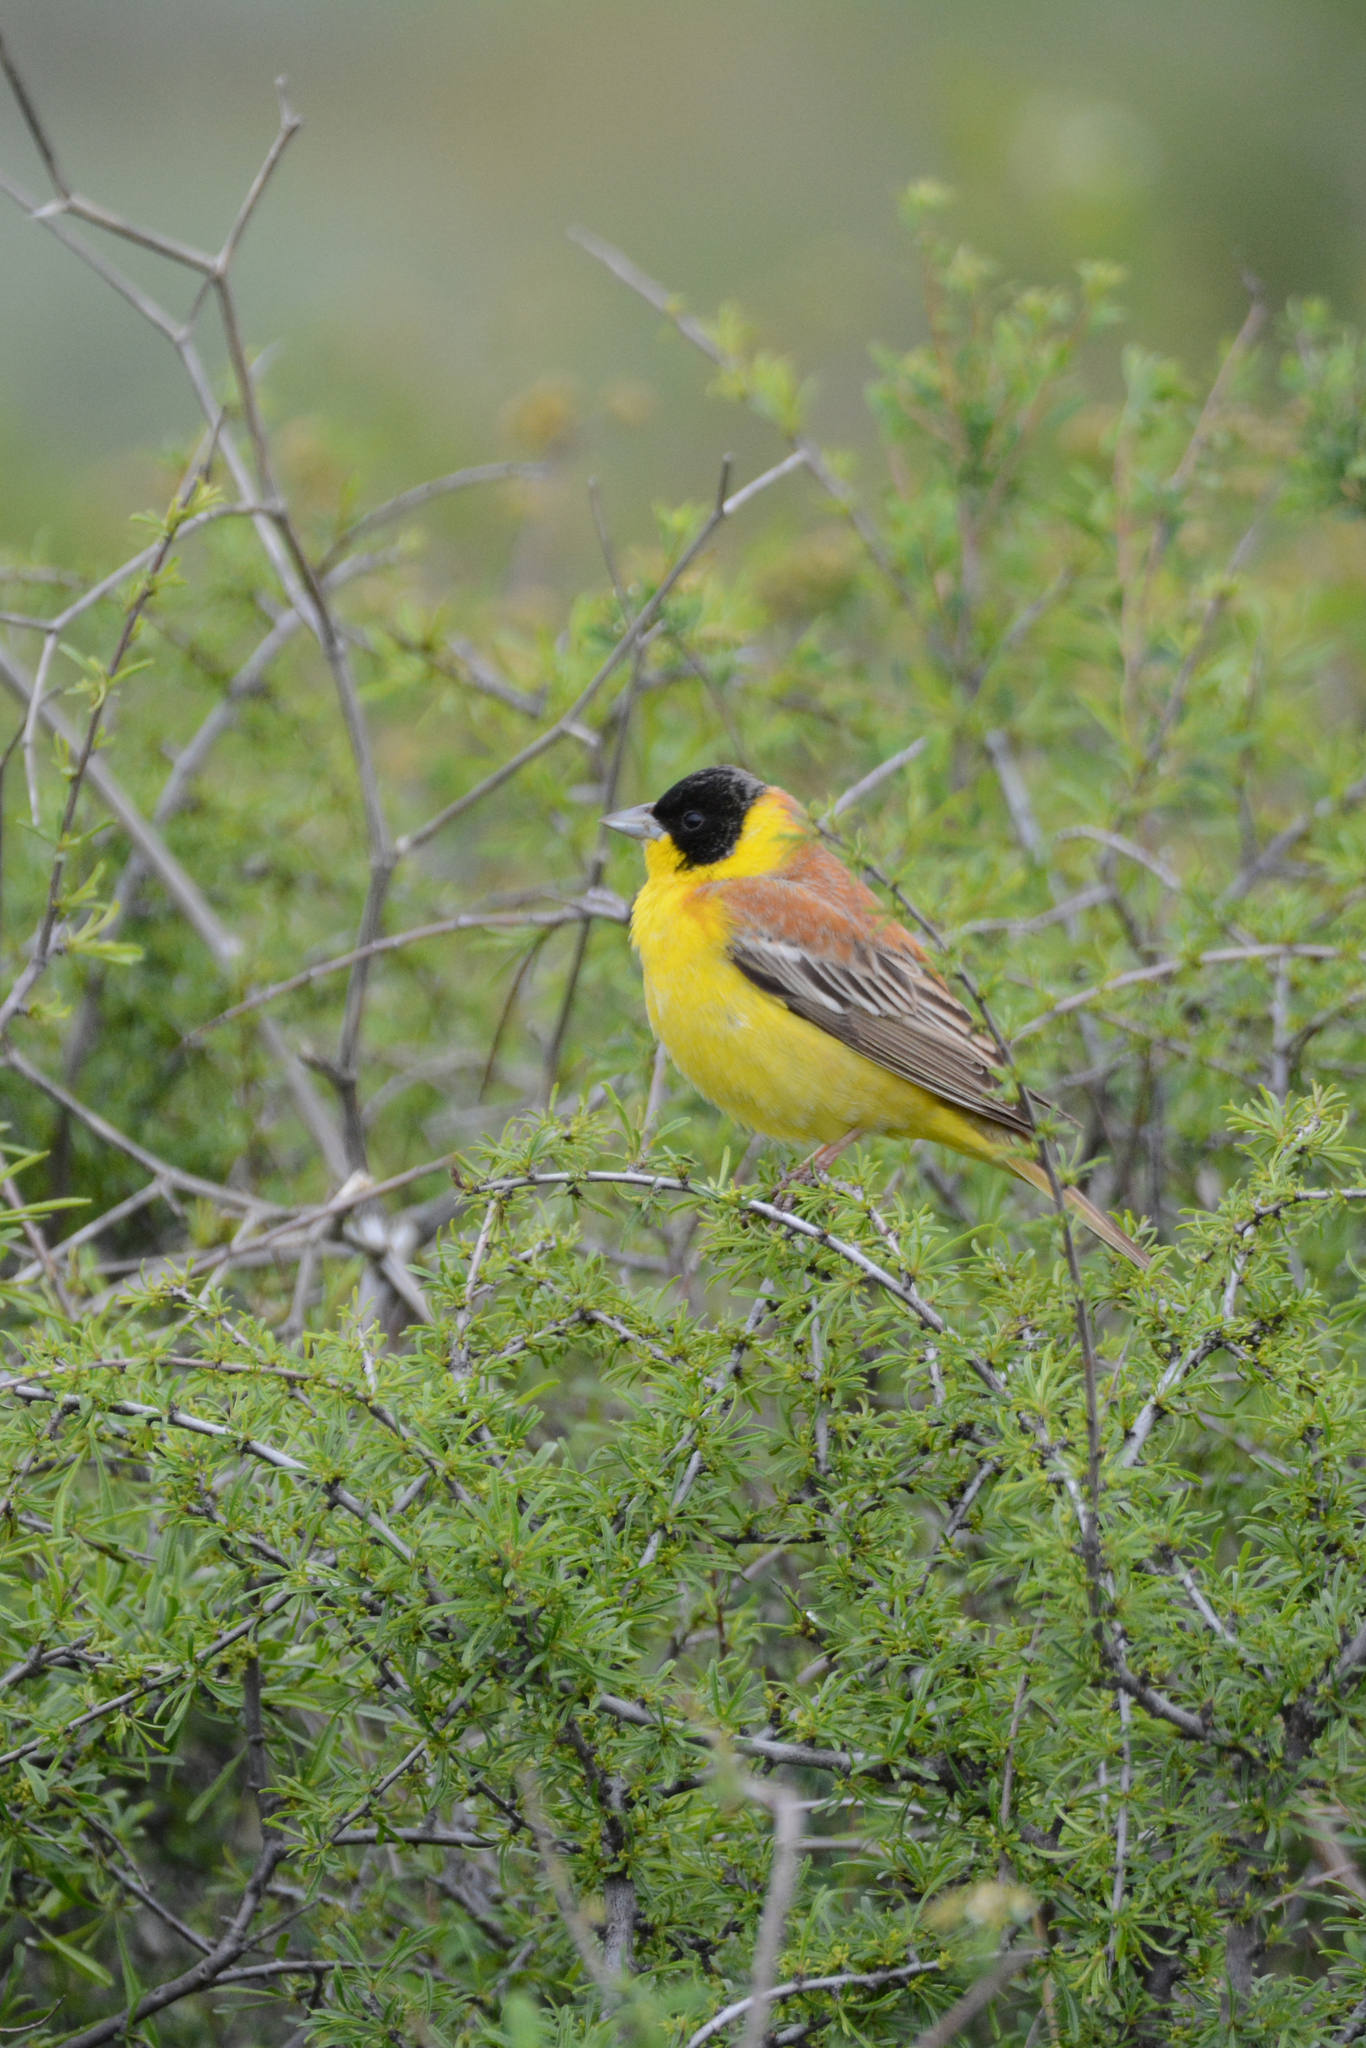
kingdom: Animalia
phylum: Chordata
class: Aves
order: Passeriformes
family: Emberizidae
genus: Emberiza
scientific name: Emberiza melanocephala
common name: Black-headed bunting
